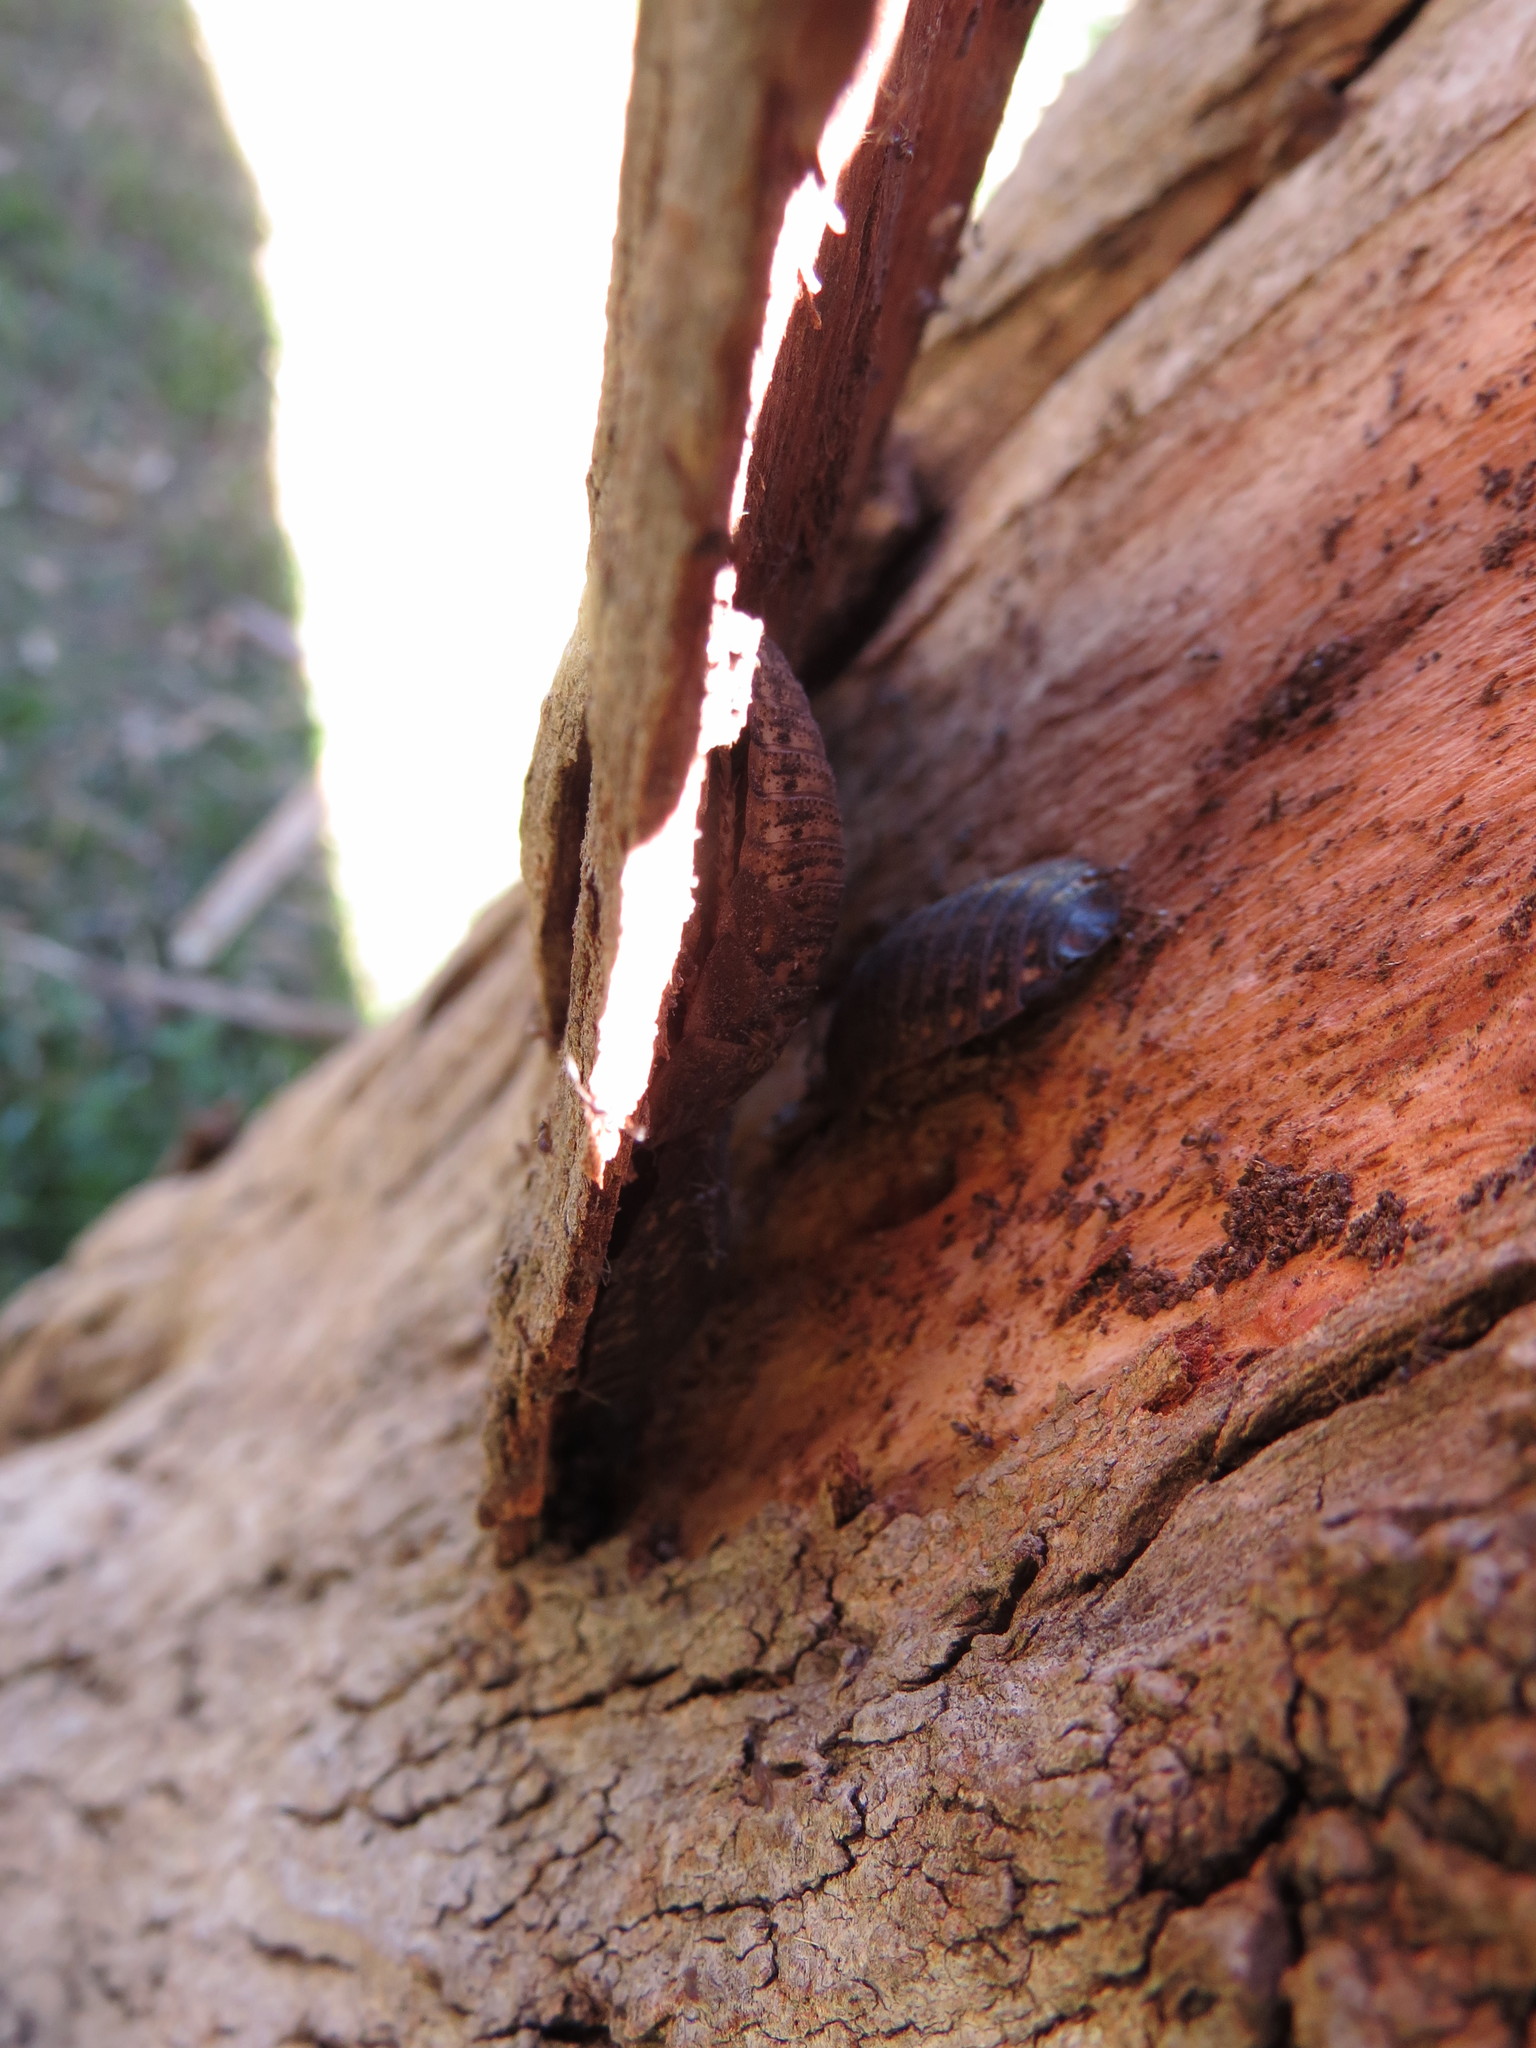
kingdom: Animalia
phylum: Arthropoda
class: Insecta
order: Blattodea
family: Blaberidae
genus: Blaptica
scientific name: Blaptica dubia
